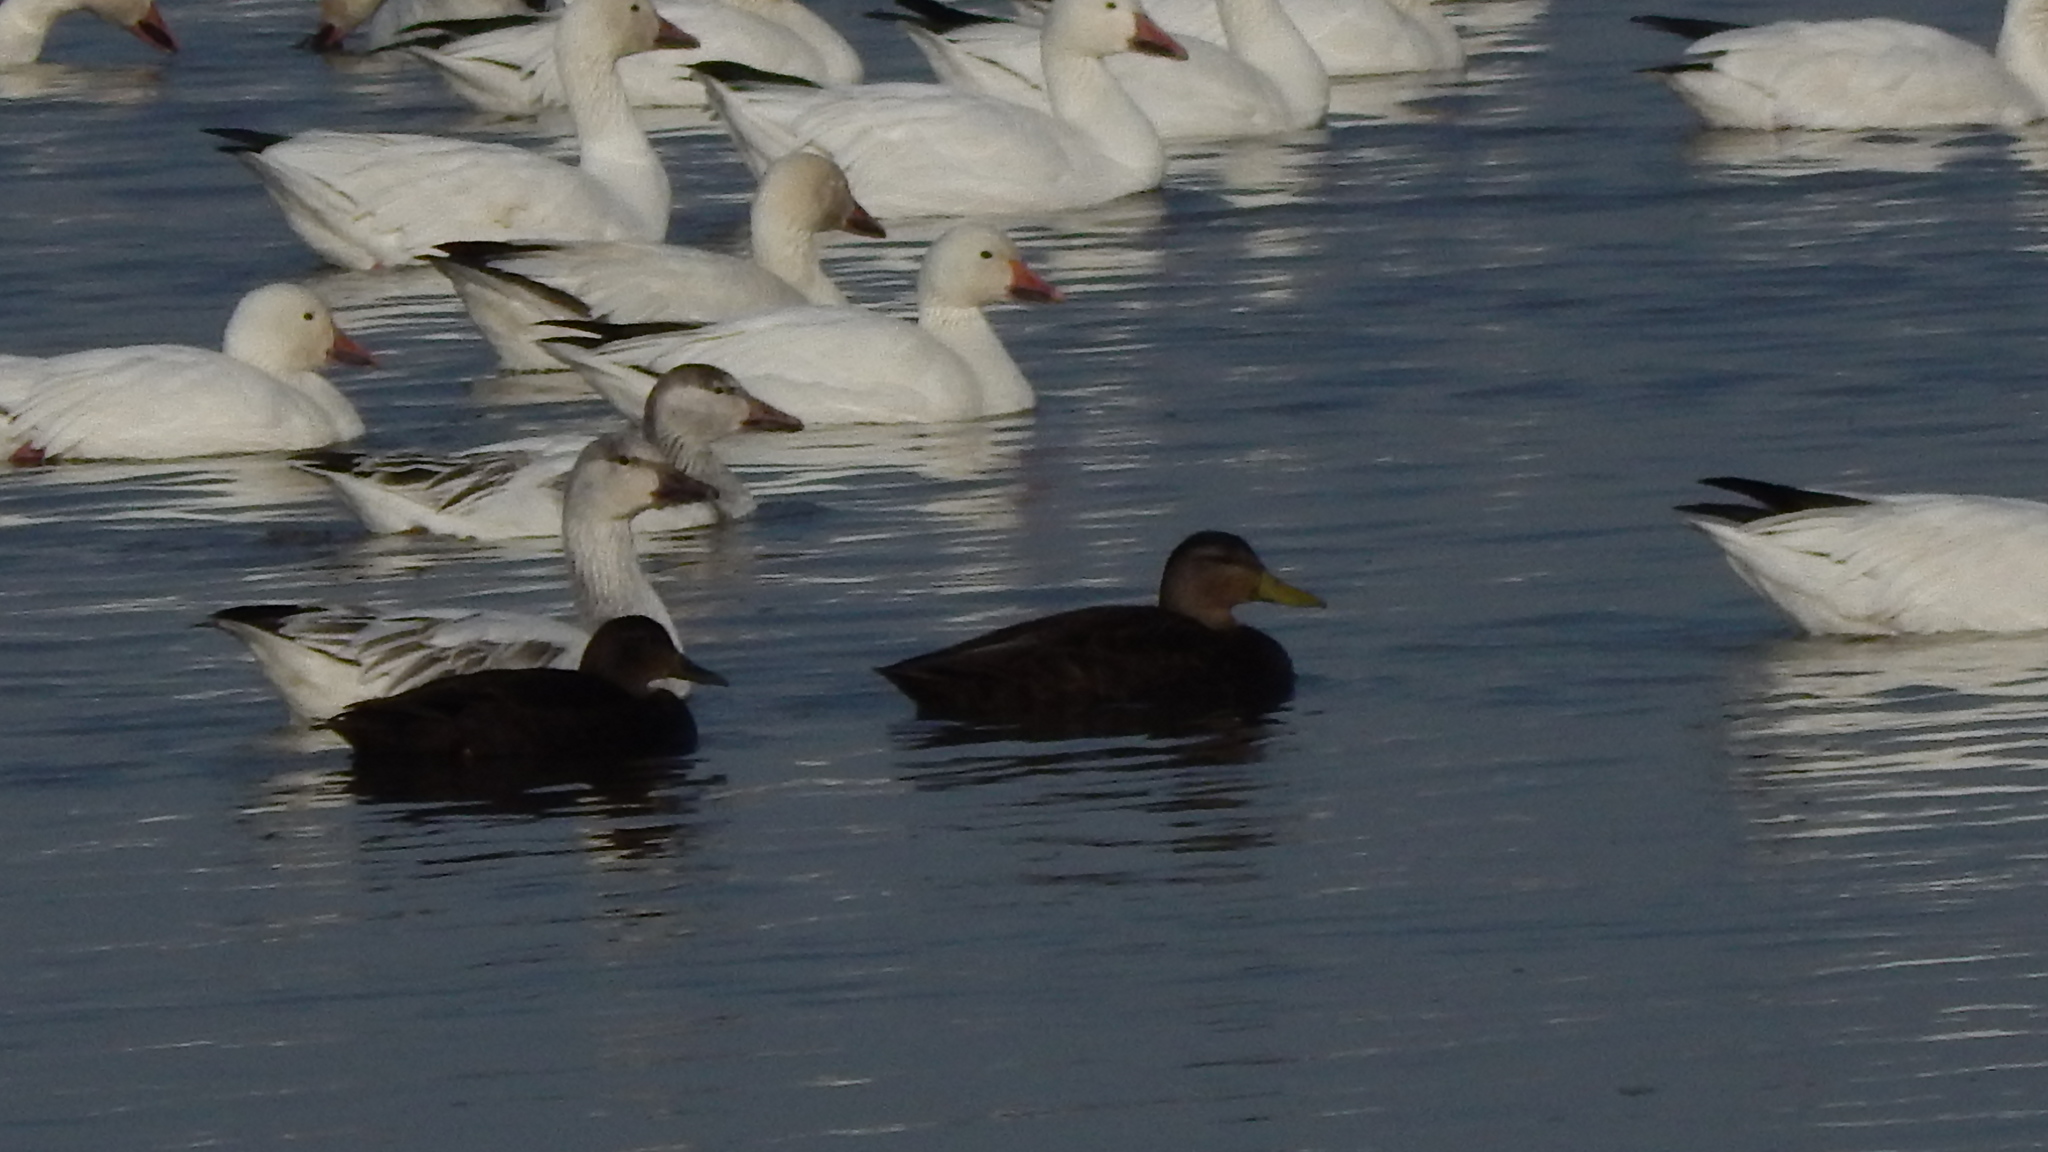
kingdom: Animalia
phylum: Chordata
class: Aves
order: Anseriformes
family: Anatidae
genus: Anas
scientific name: Anas rubripes
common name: American black duck
